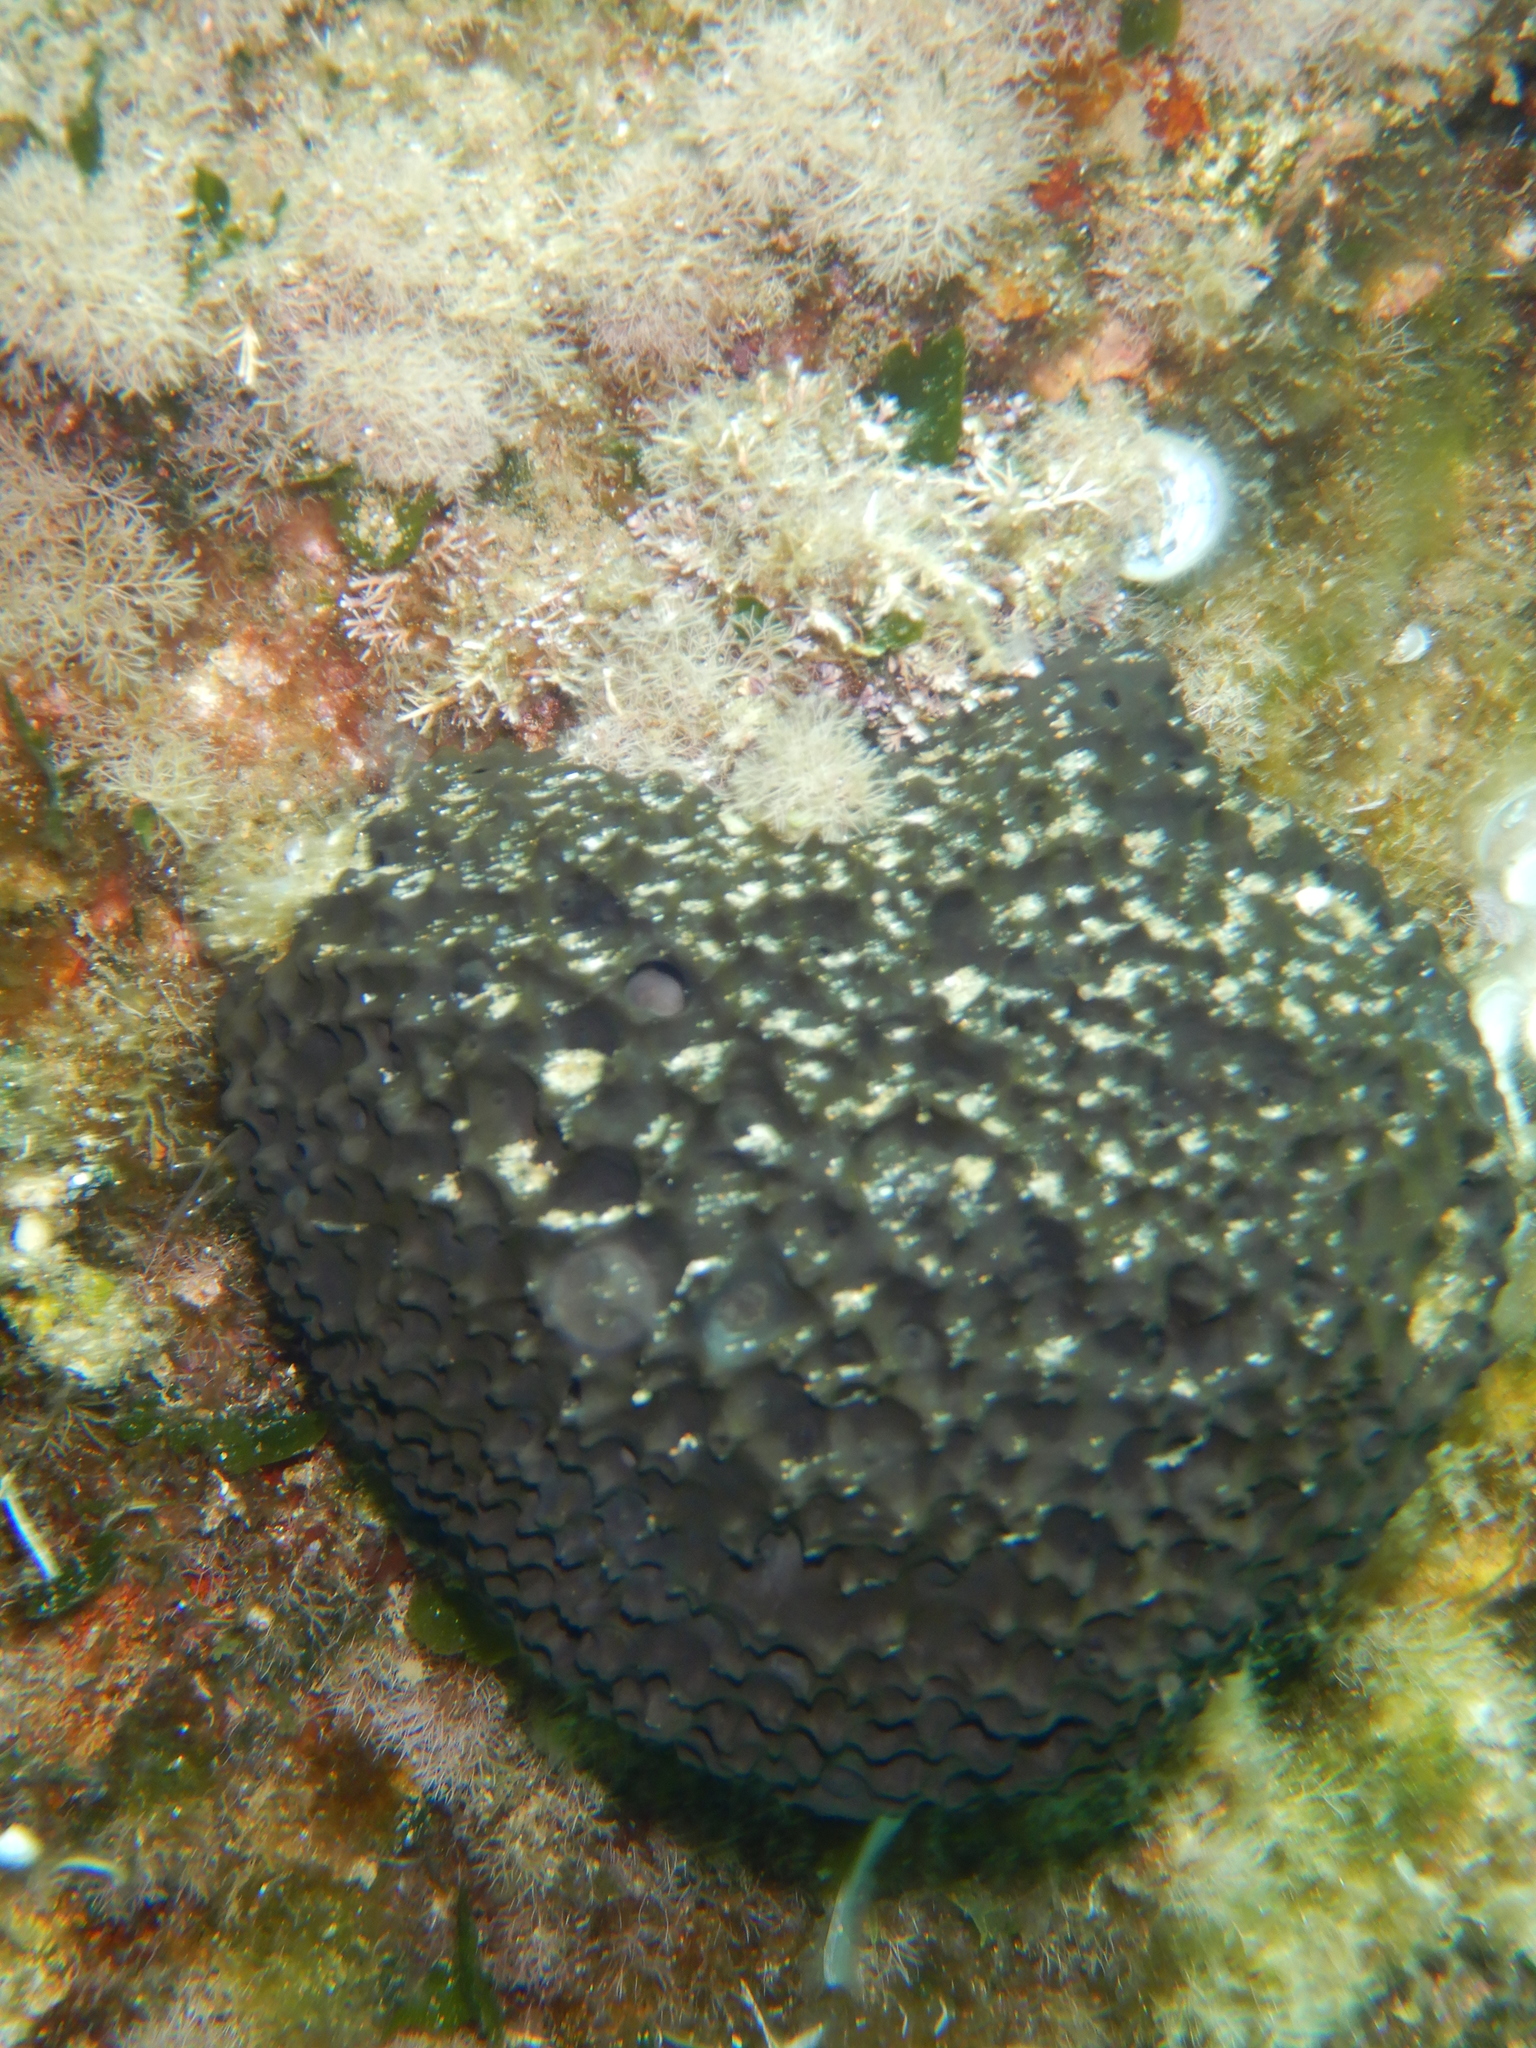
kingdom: Animalia
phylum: Porifera
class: Demospongiae
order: Dictyoceratida
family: Irciniidae
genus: Sarcotragus
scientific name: Sarcotragus spinosulus
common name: Black leather sponge
